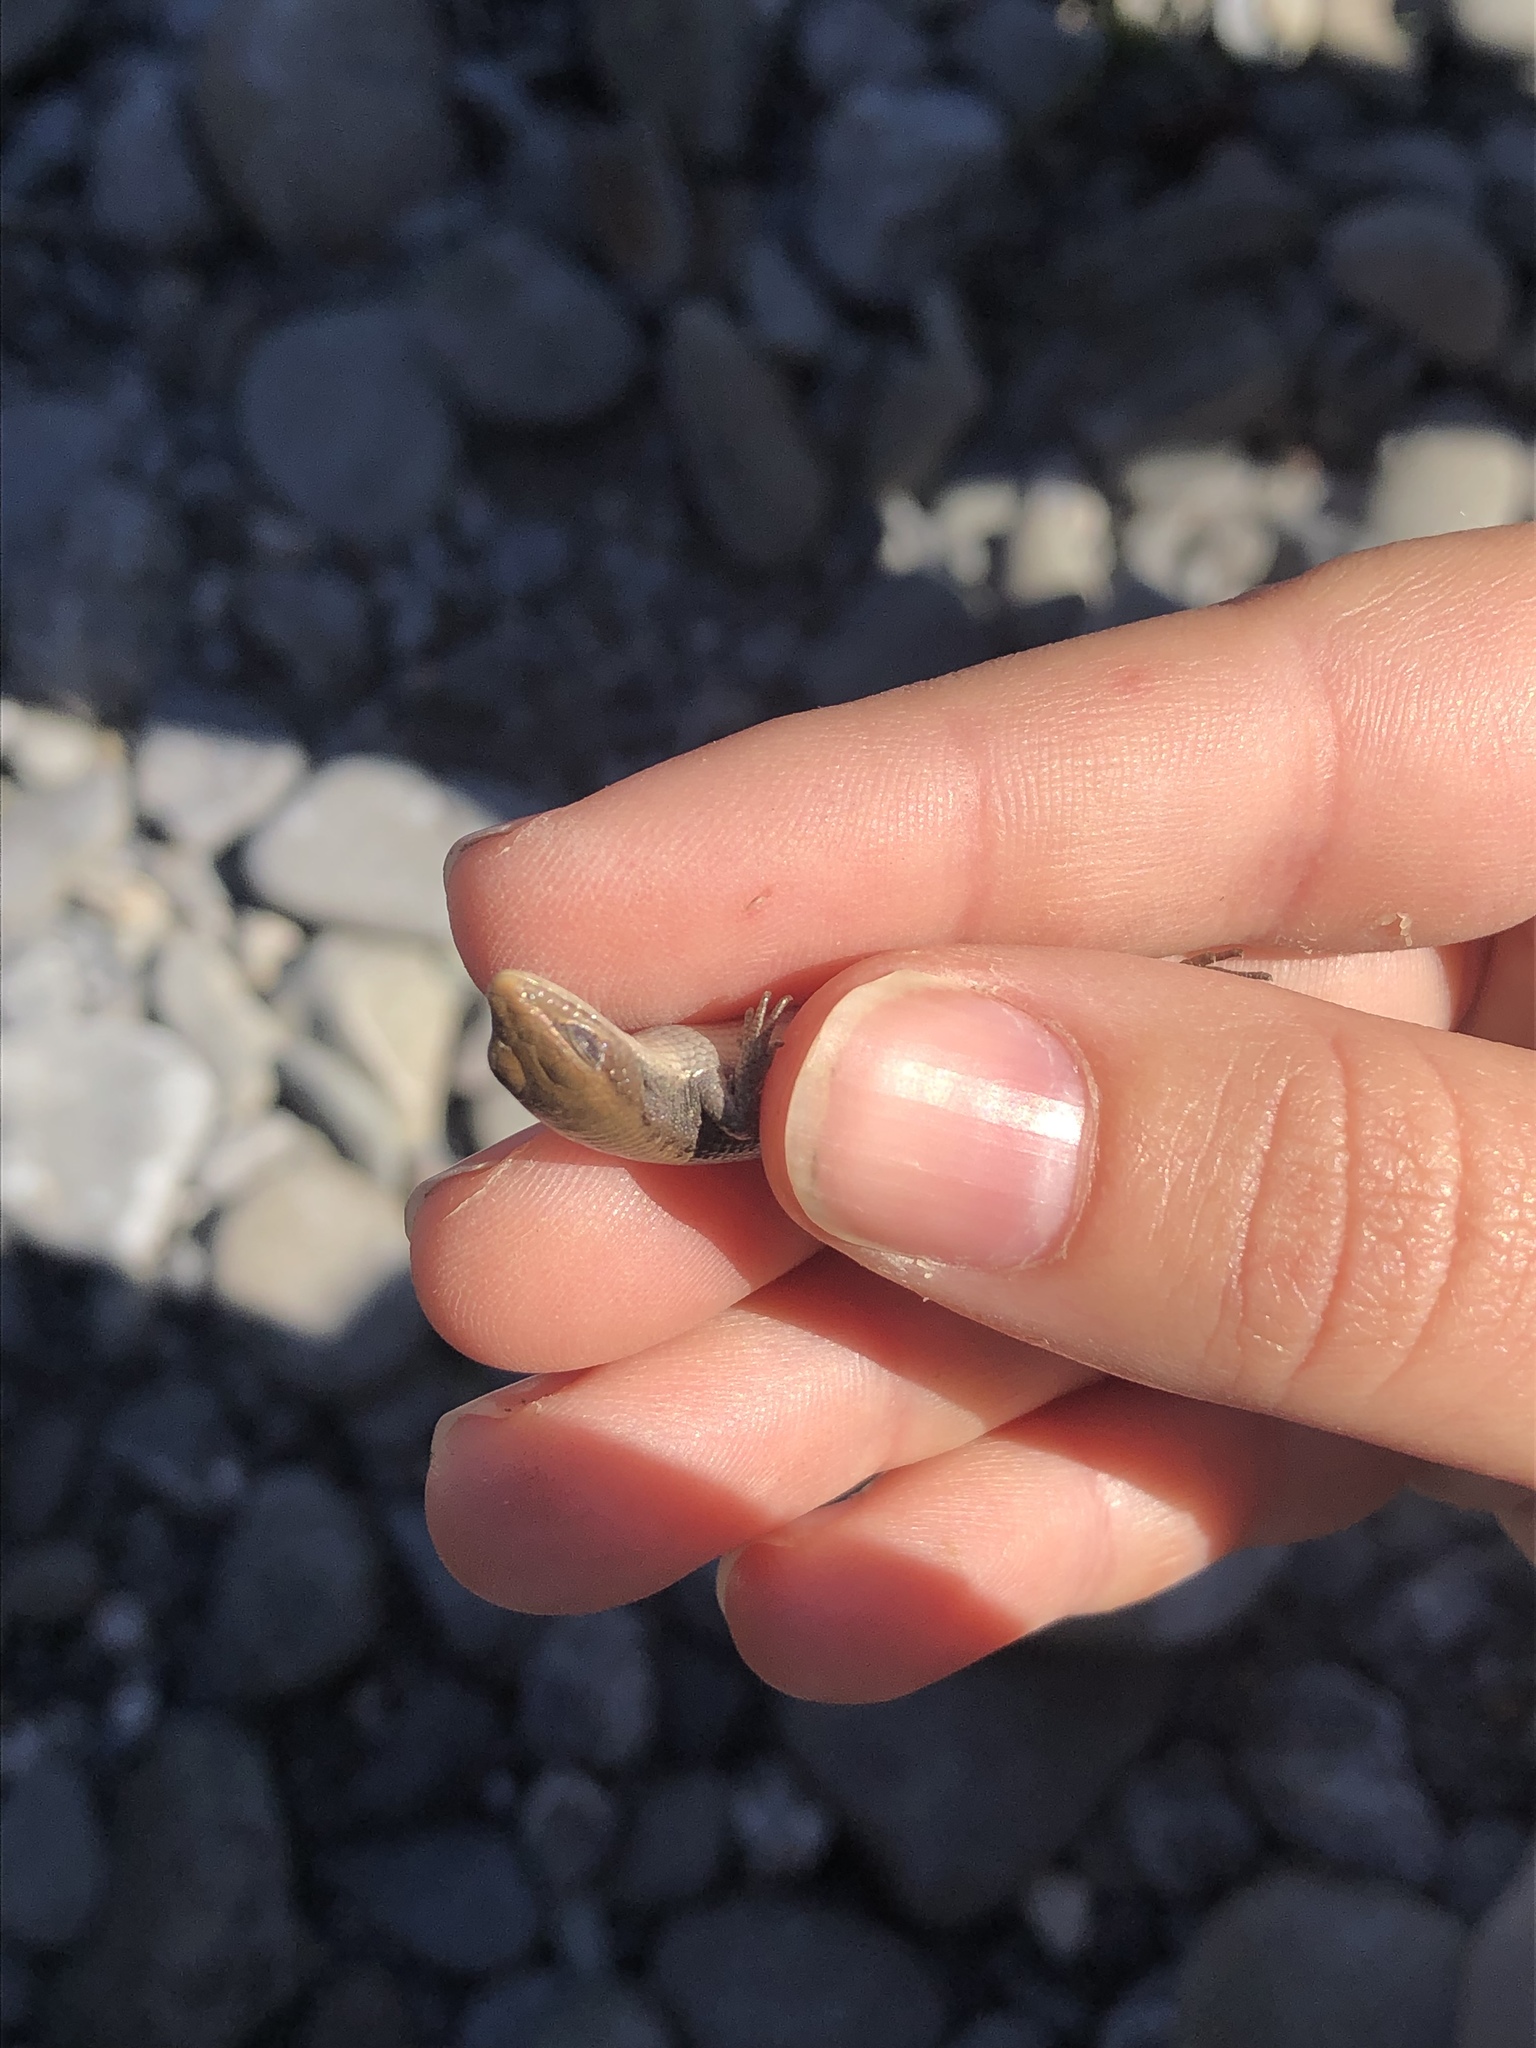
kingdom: Animalia
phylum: Chordata
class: Squamata
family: Anguidae
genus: Elgaria
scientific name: Elgaria coerulea
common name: Northern alligator lizard
